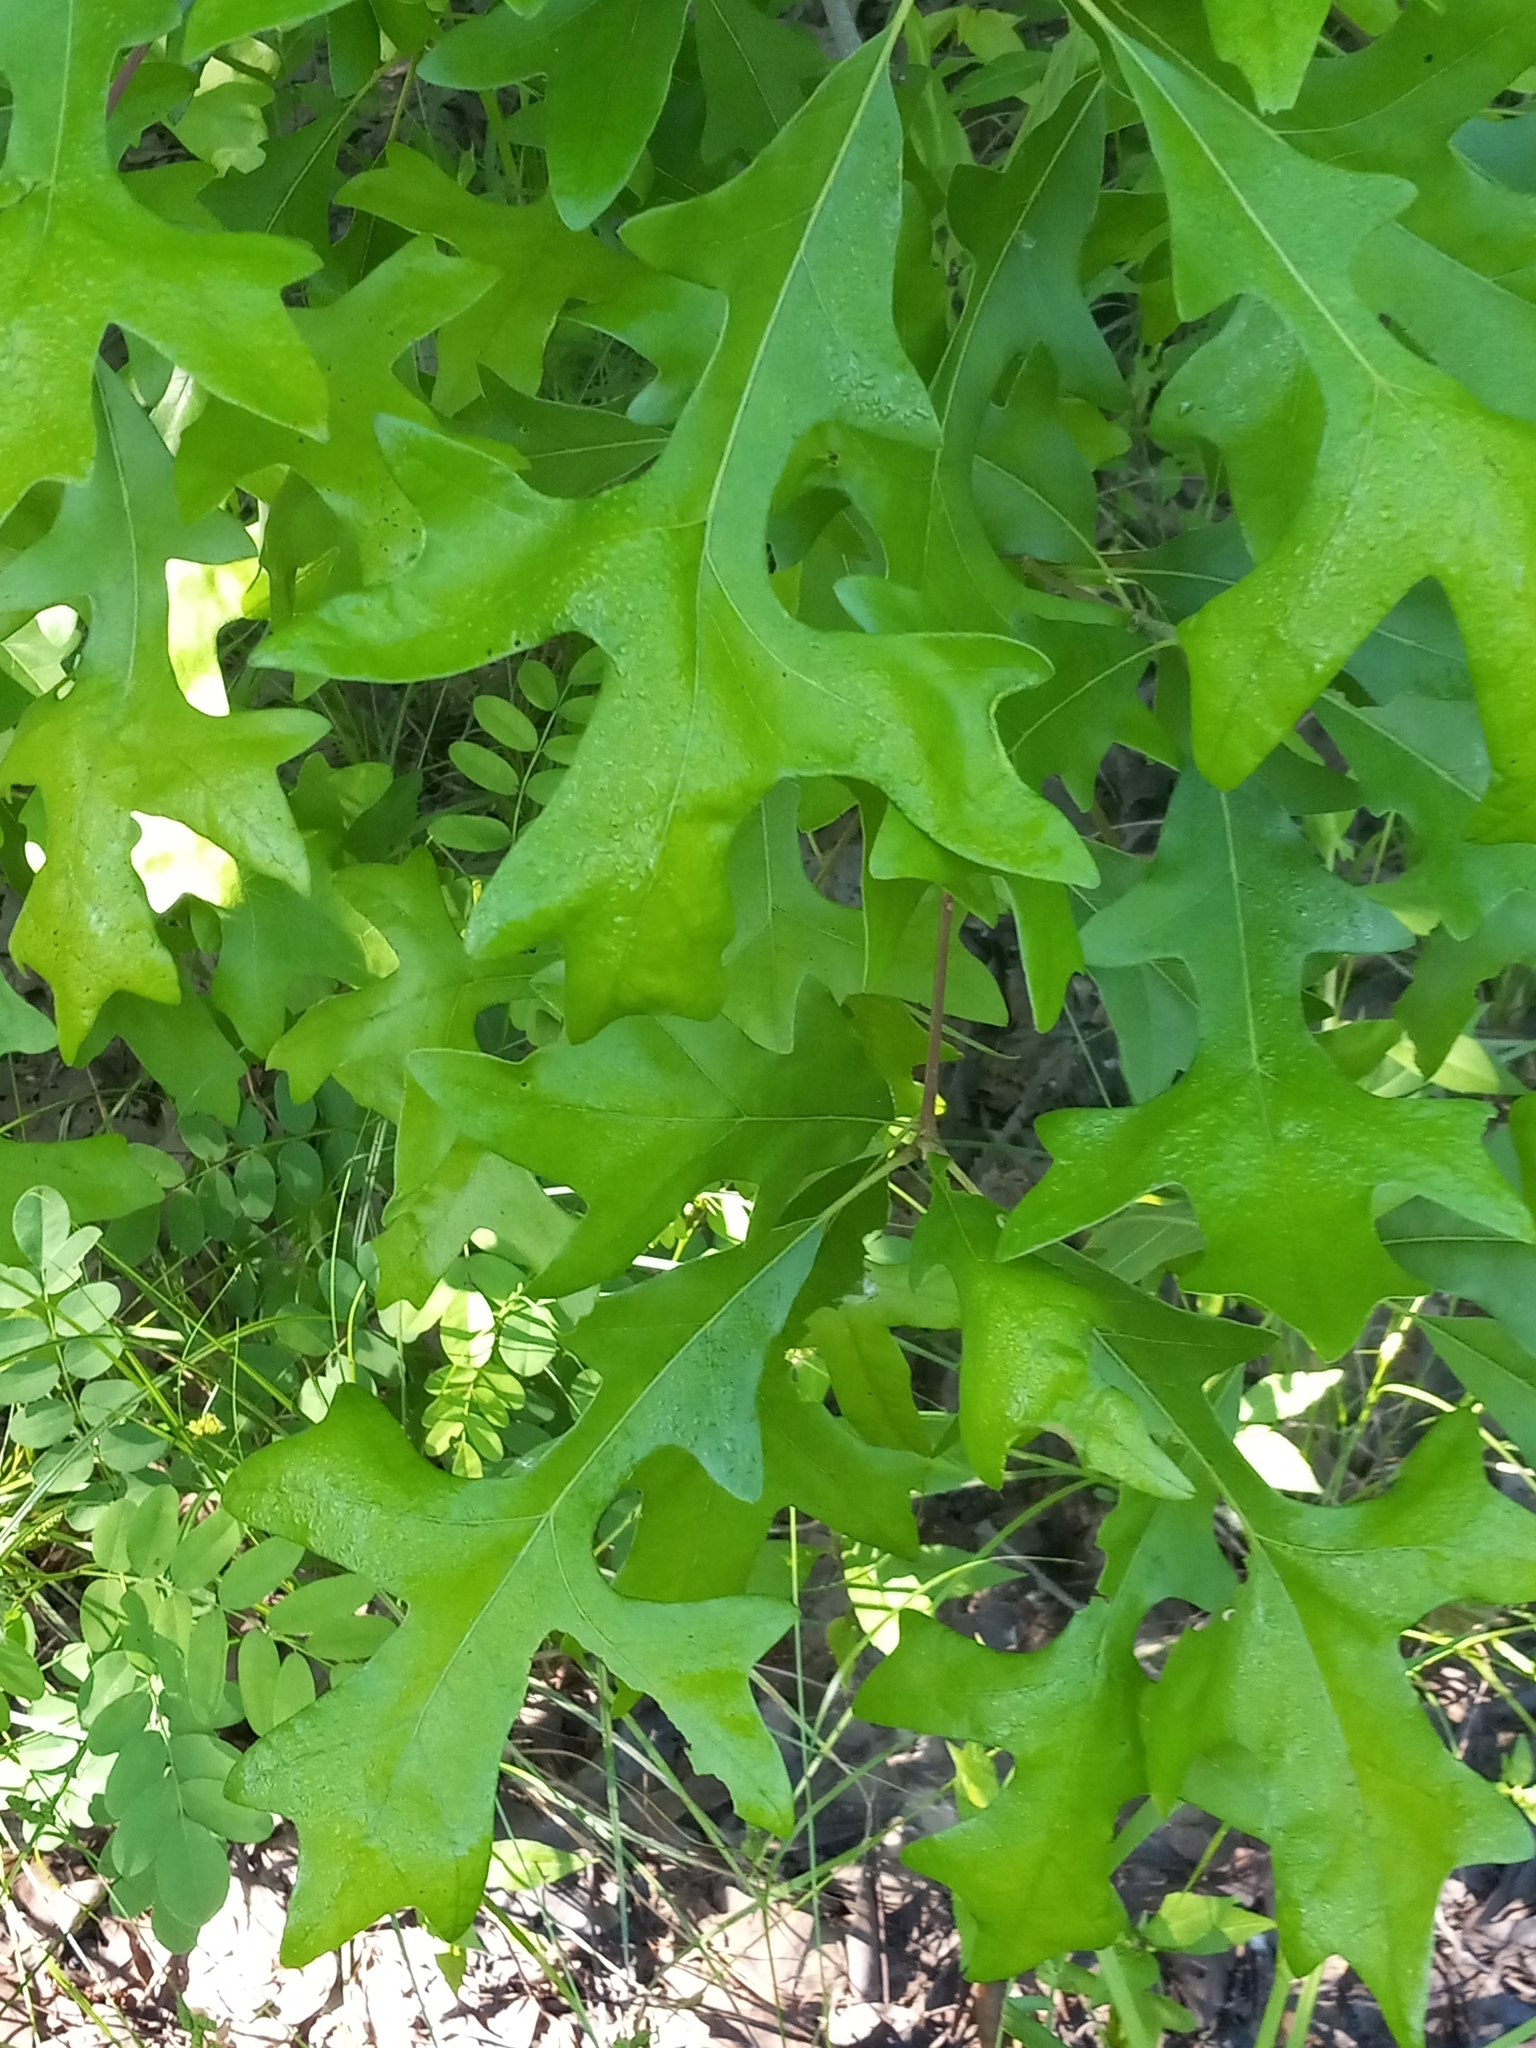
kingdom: Plantae
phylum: Tracheophyta
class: Magnoliopsida
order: Fagales
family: Fagaceae
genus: Quercus
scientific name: Quercus lyrata
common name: Overcup oak
